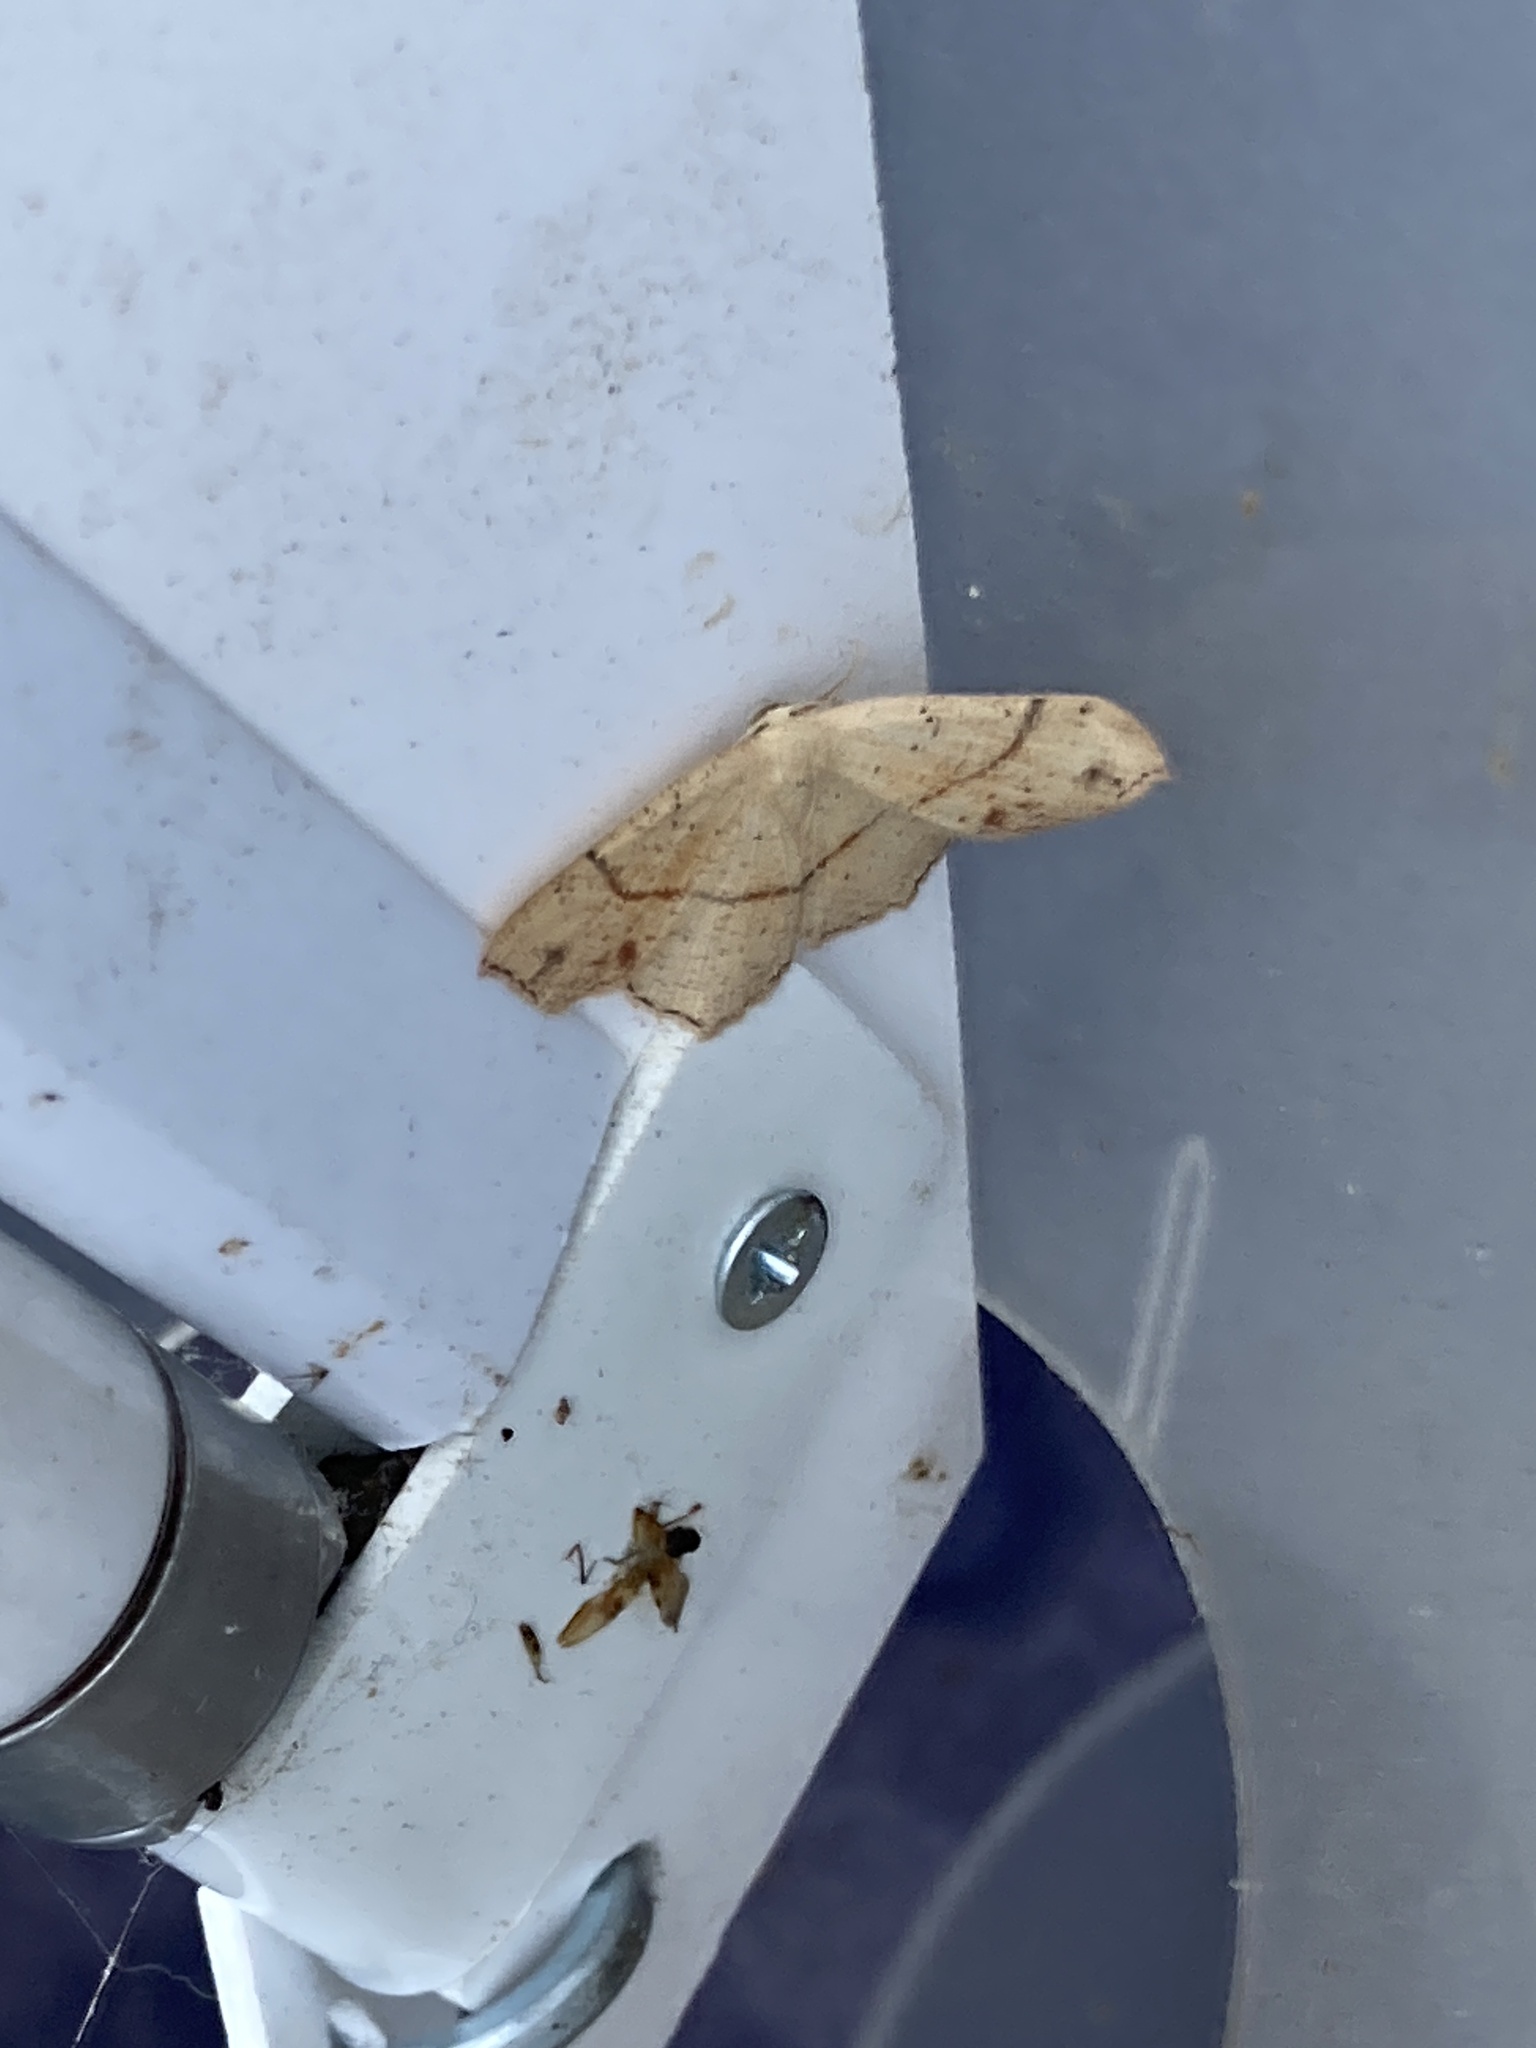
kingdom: Animalia
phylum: Arthropoda
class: Insecta
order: Lepidoptera
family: Geometridae
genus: Cyclophora
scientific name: Cyclophora punctaria
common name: Maiden's blush
